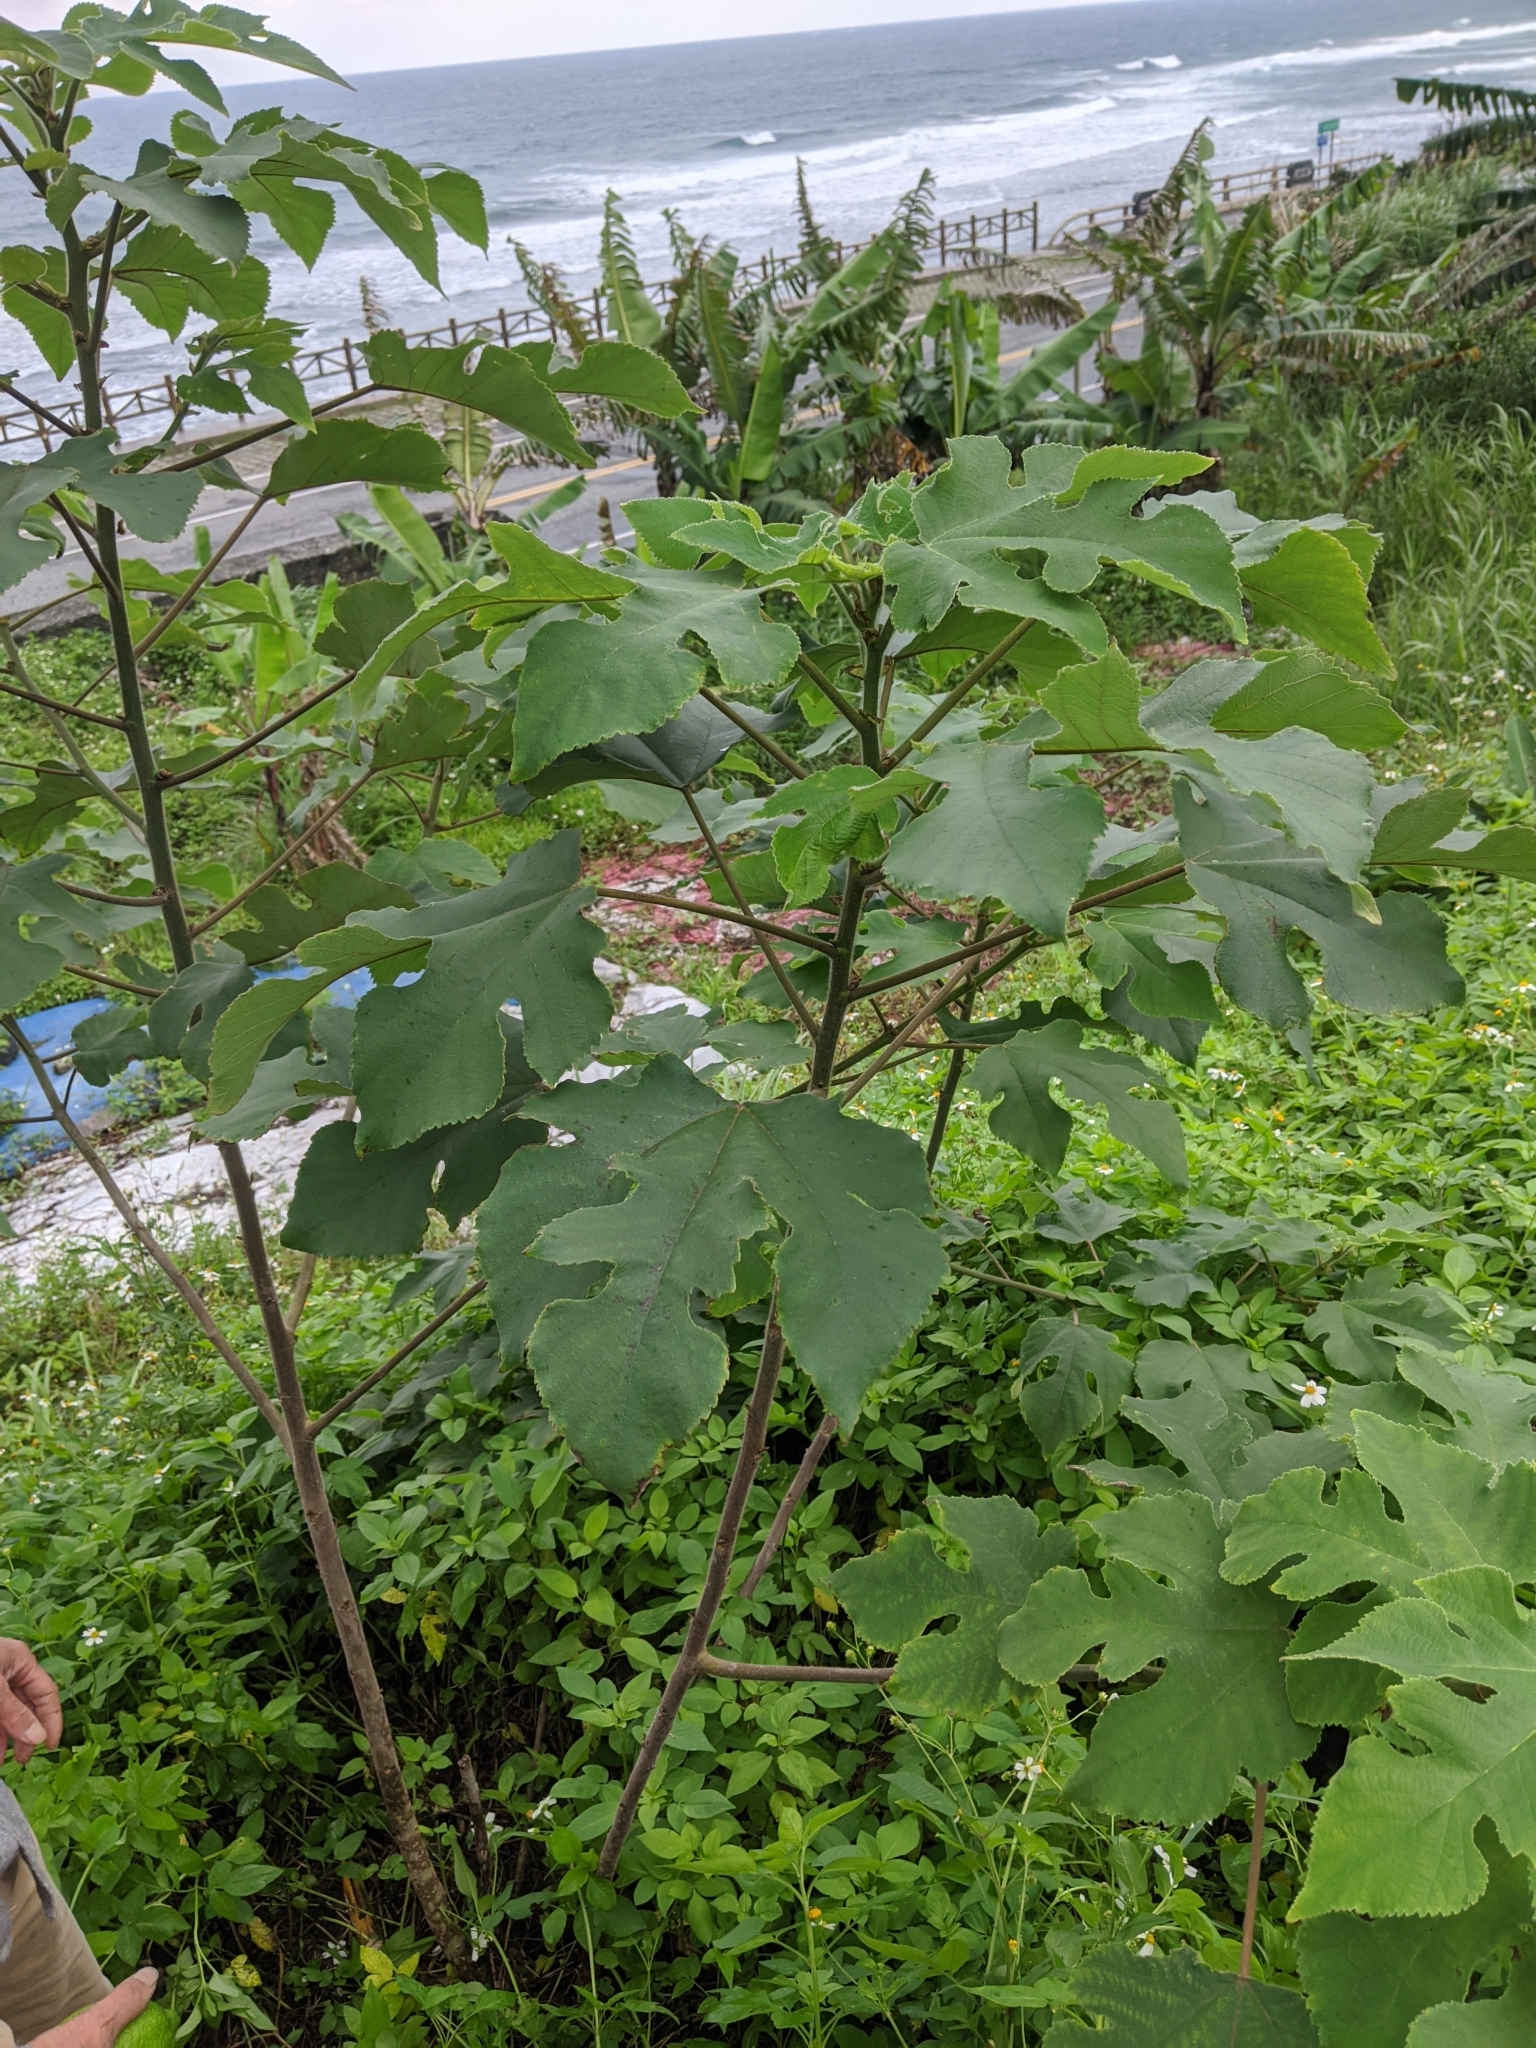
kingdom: Plantae
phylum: Tracheophyta
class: Magnoliopsida
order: Rosales
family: Moraceae
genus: Broussonetia
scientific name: Broussonetia papyrifera
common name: Paper mulberry
